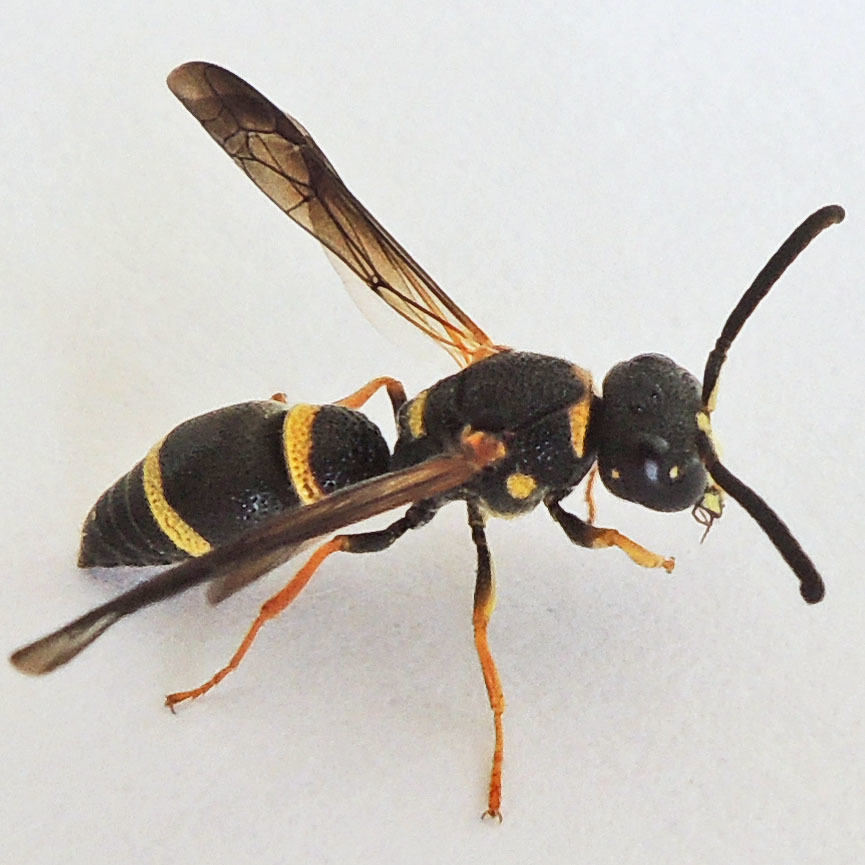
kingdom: Animalia
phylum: Arthropoda
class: Insecta
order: Hymenoptera
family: Eumenidae
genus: Parancistrocerus
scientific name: Parancistrocerus perennis
